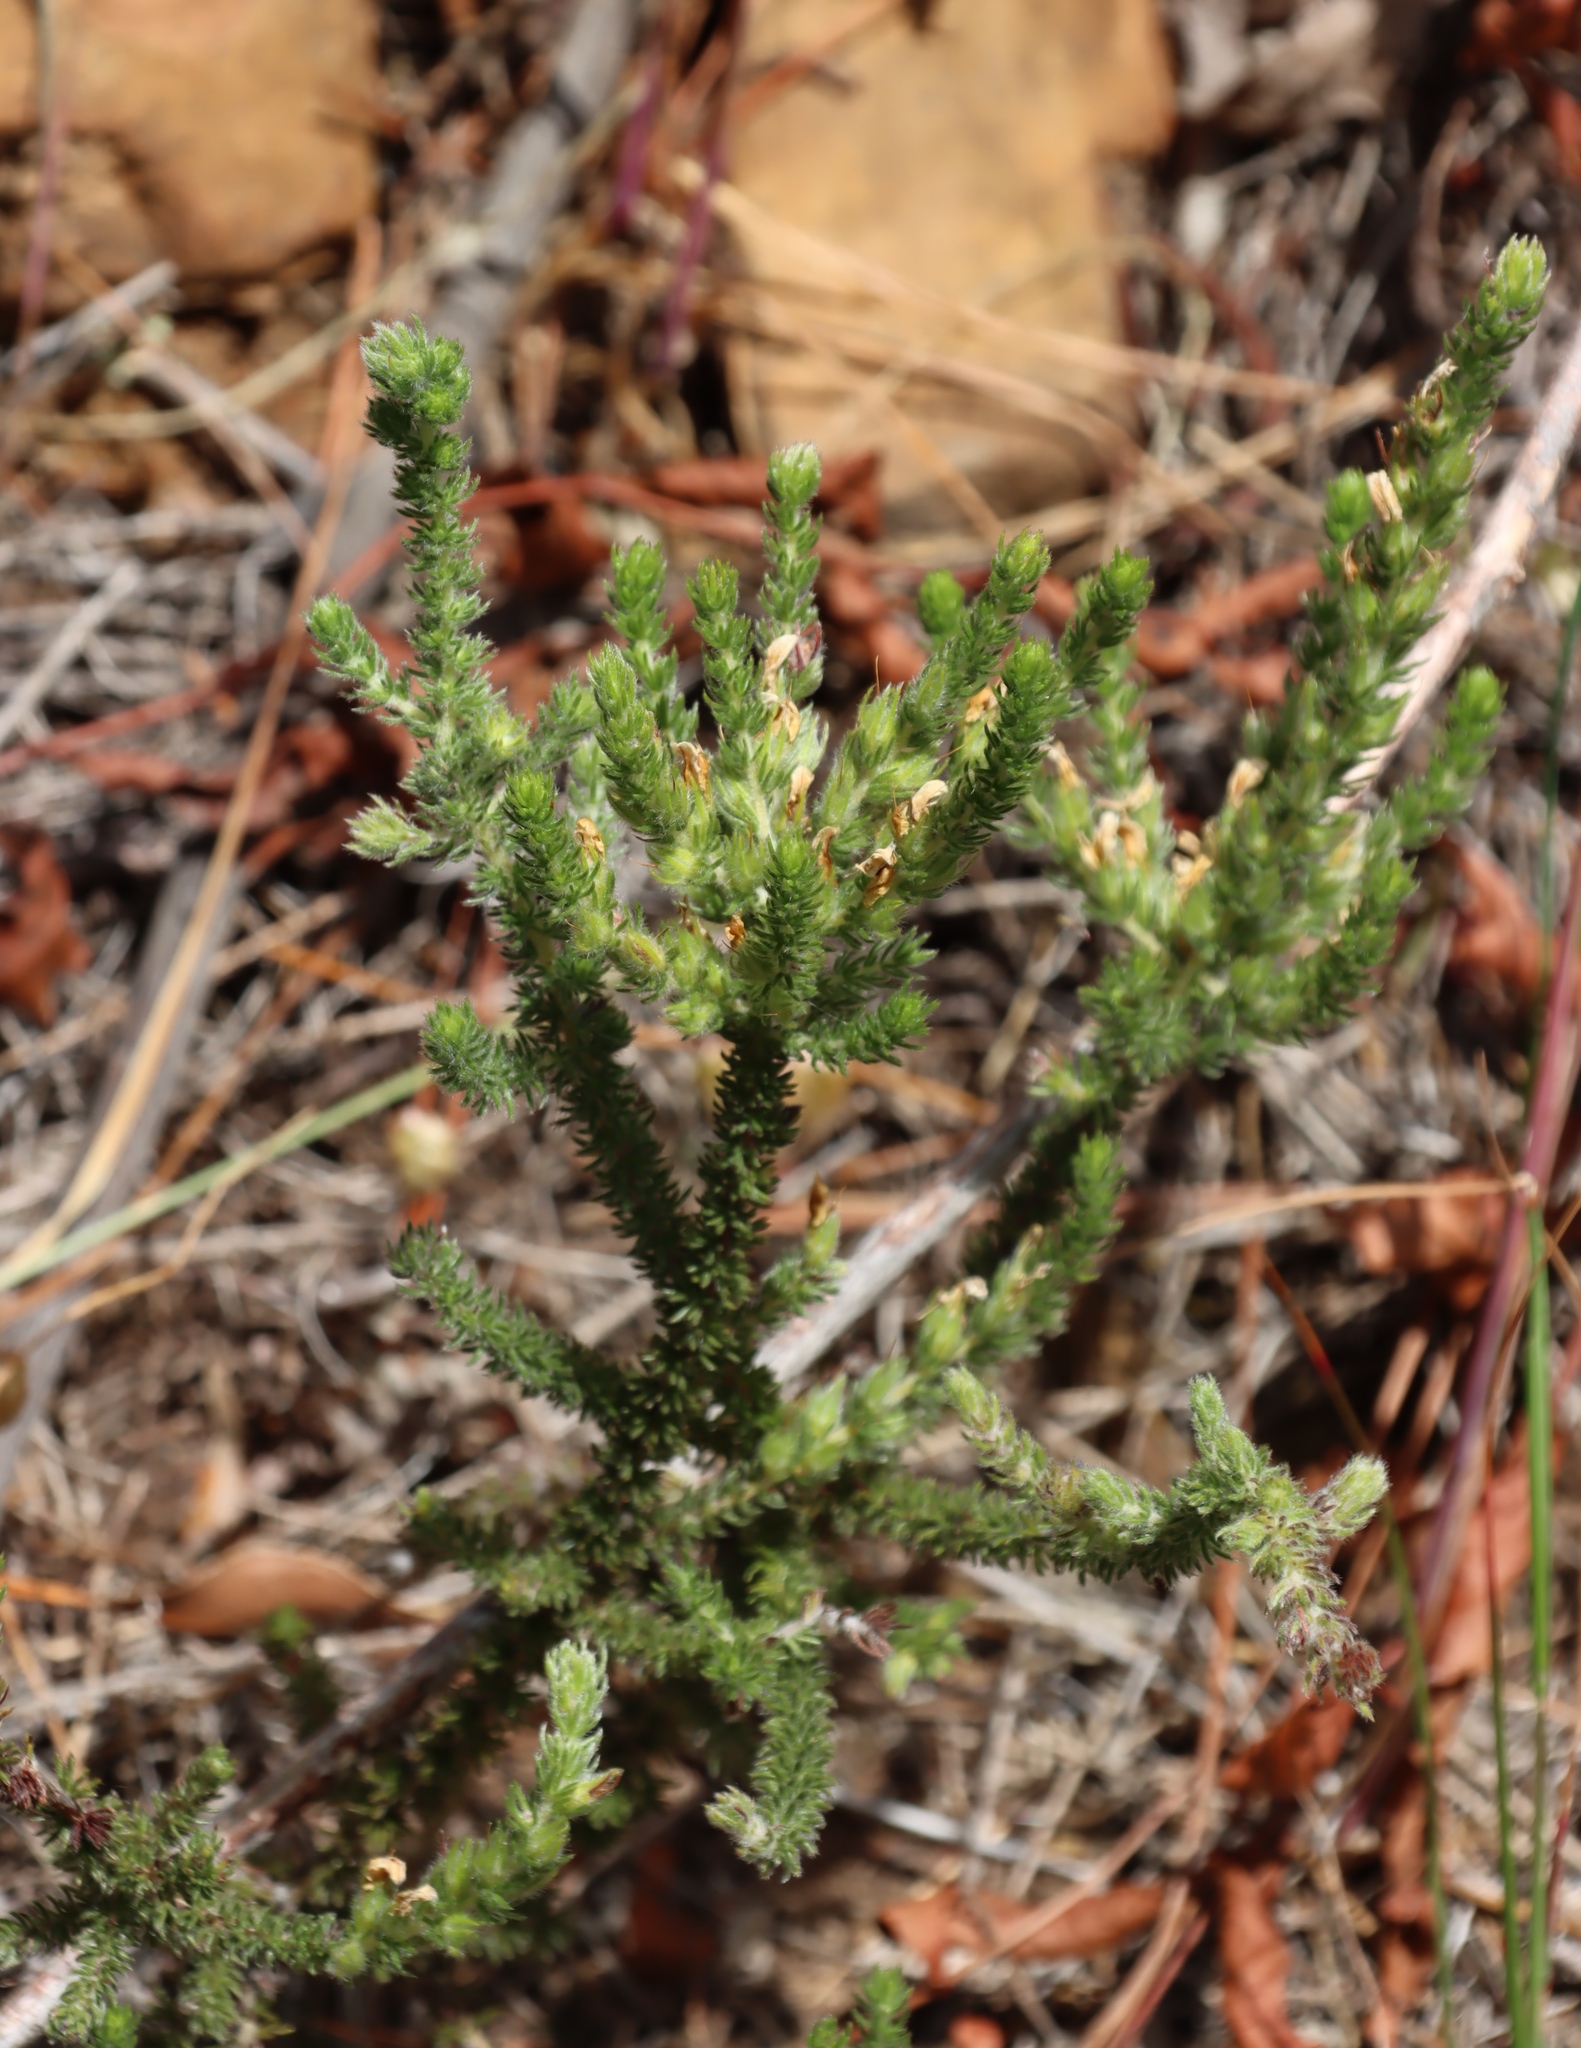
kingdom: Plantae
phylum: Tracheophyta
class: Magnoliopsida
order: Fabales
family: Fabaceae
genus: Aspalathus
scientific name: Aspalathus hispida
